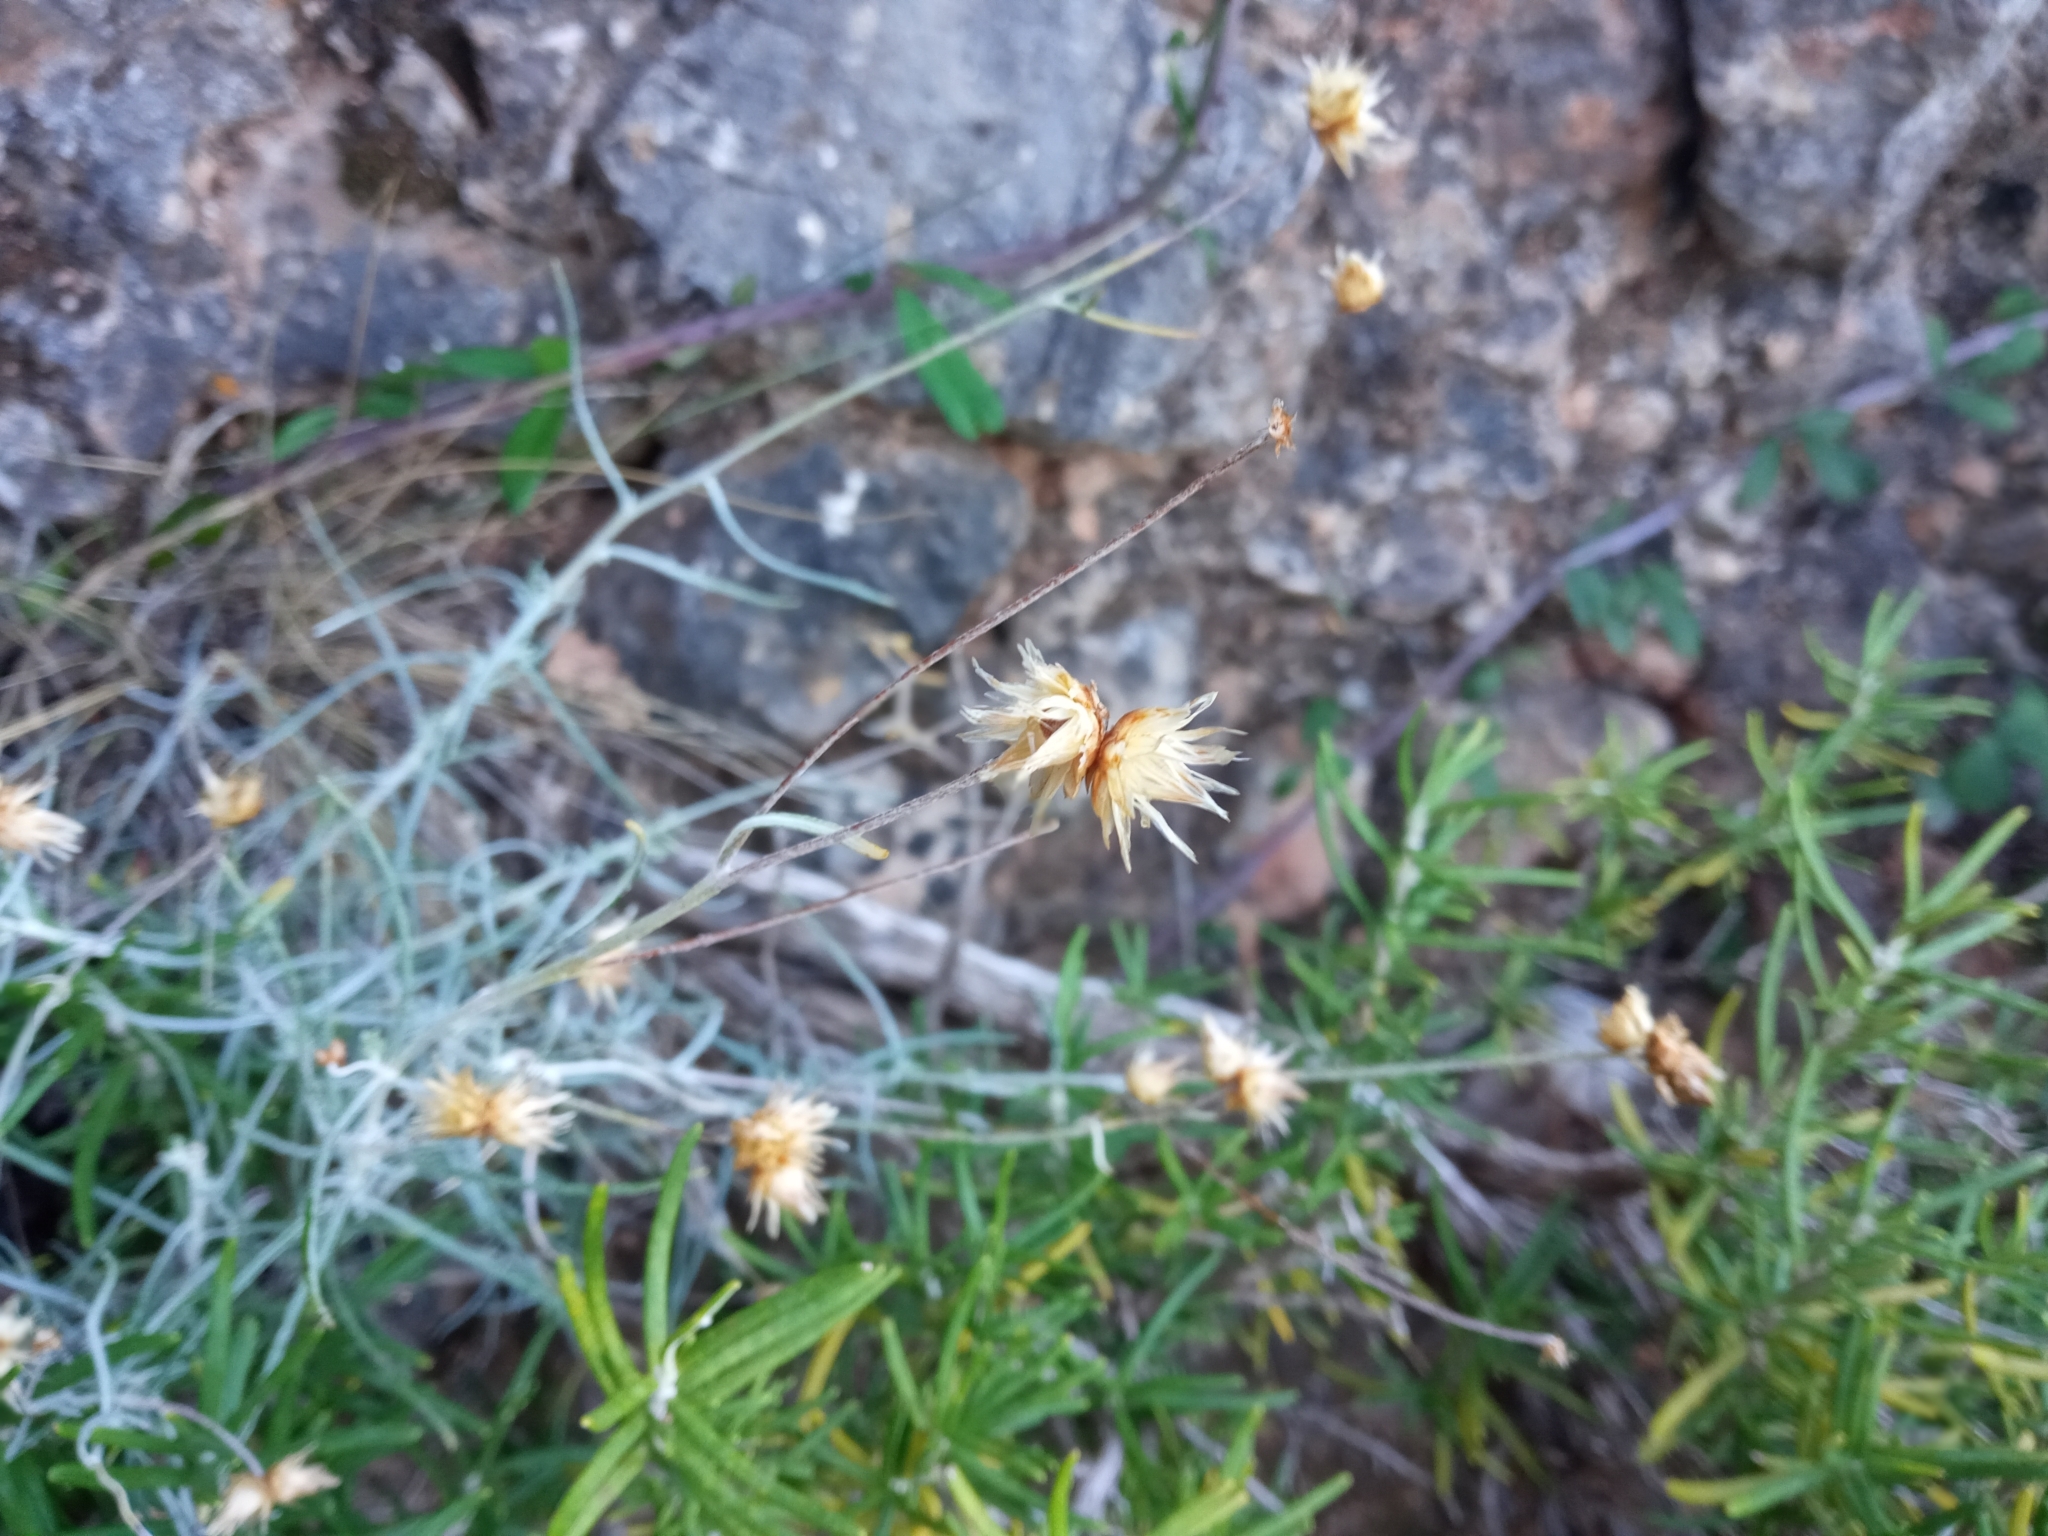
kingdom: Plantae
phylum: Tracheophyta
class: Magnoliopsida
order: Asterales
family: Asteraceae
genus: Phagnalon
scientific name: Phagnalon sordidum
